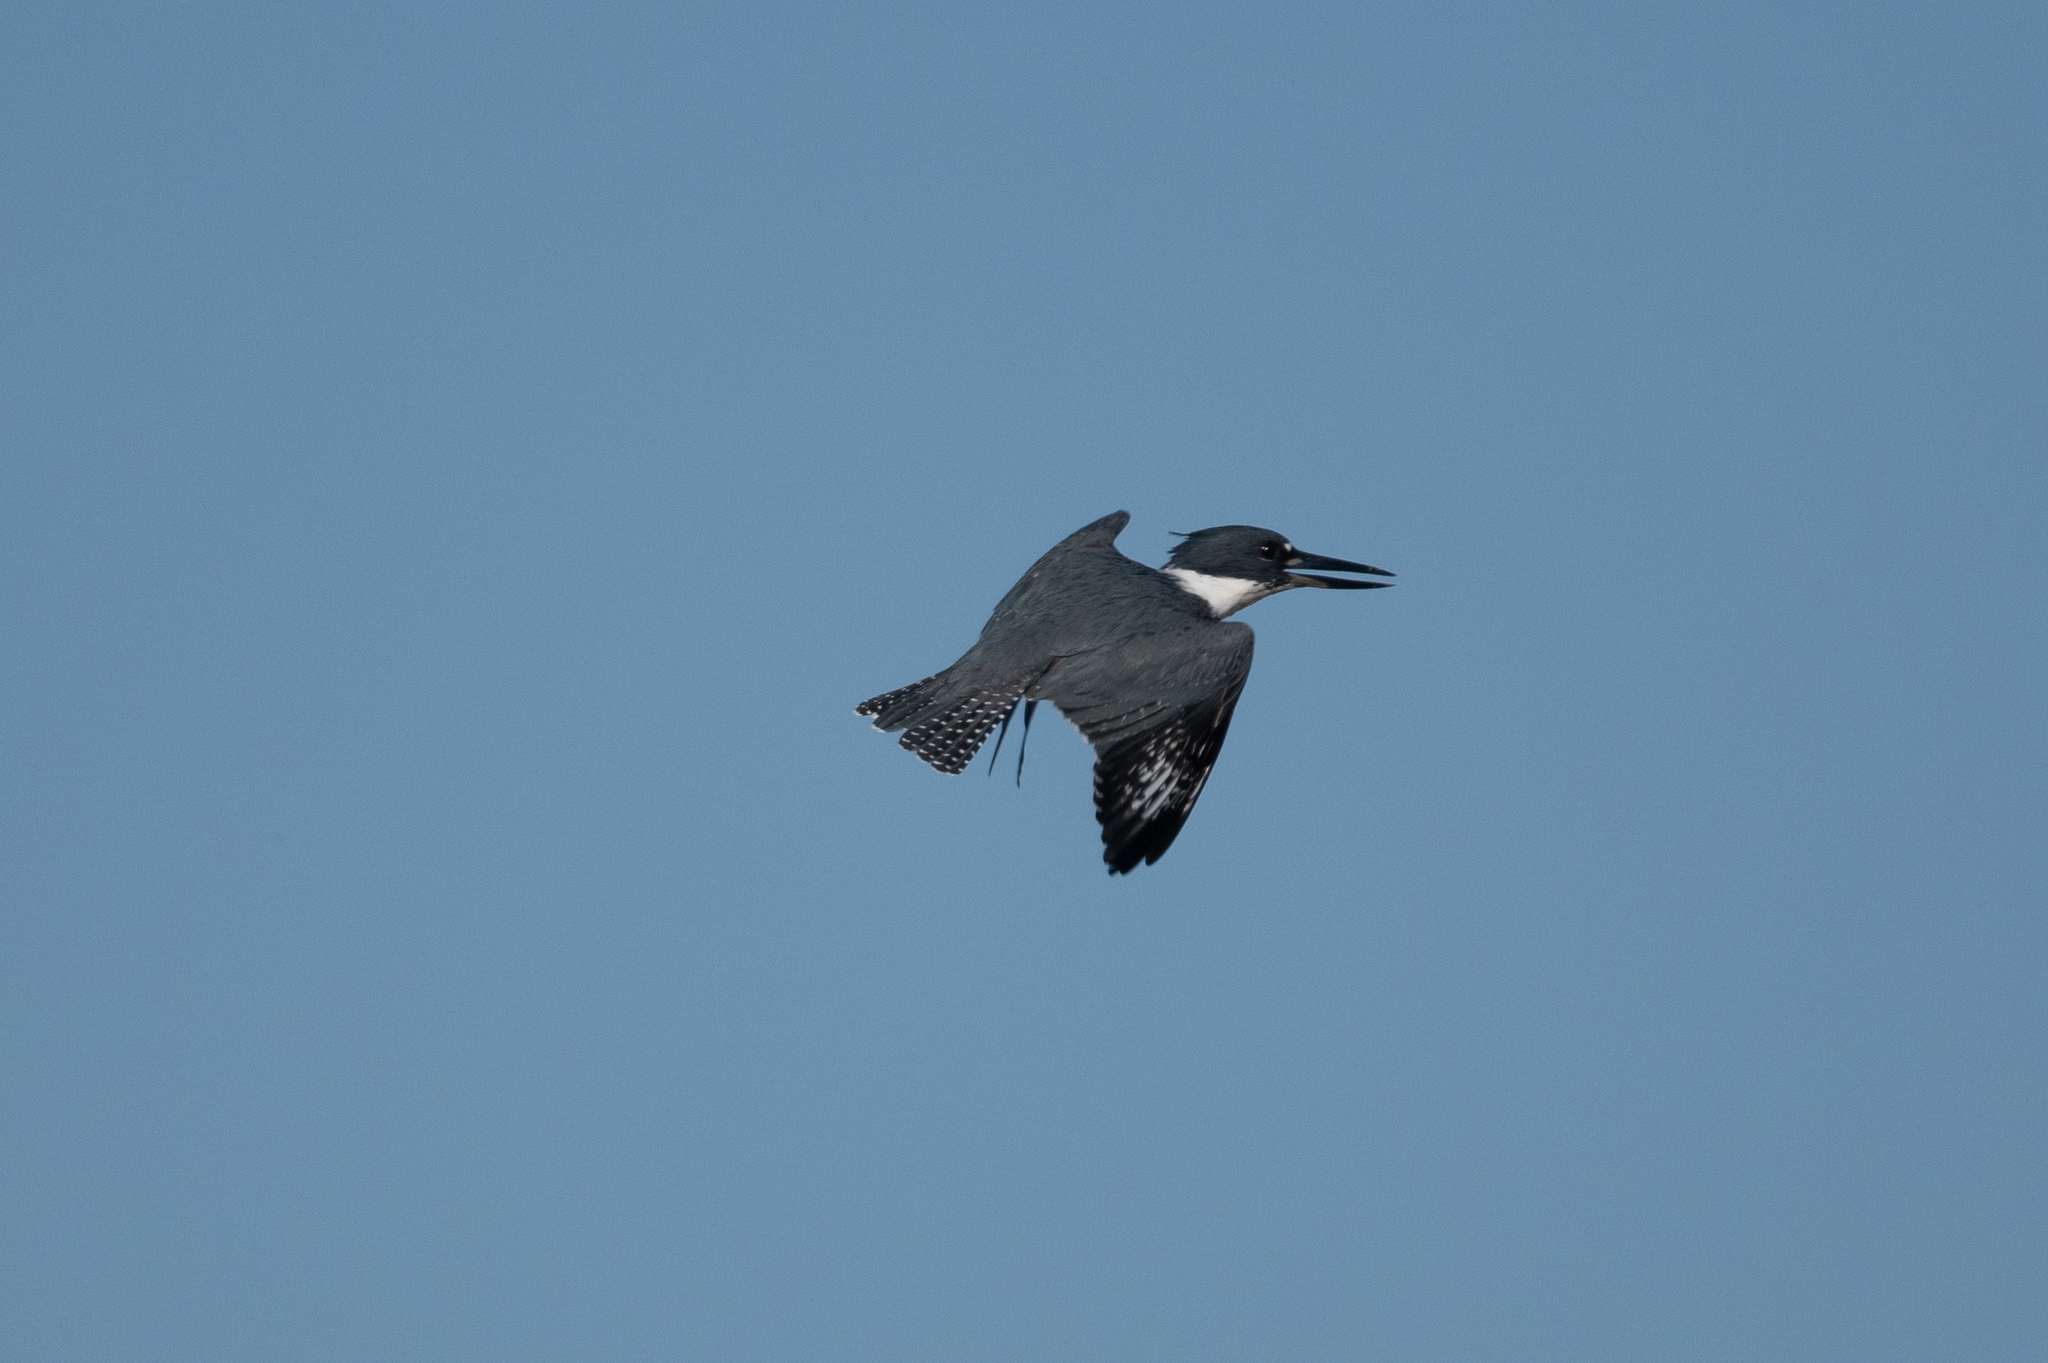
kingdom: Animalia
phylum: Chordata
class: Aves
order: Coraciiformes
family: Alcedinidae
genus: Megaceryle
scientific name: Megaceryle alcyon
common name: Belted kingfisher
